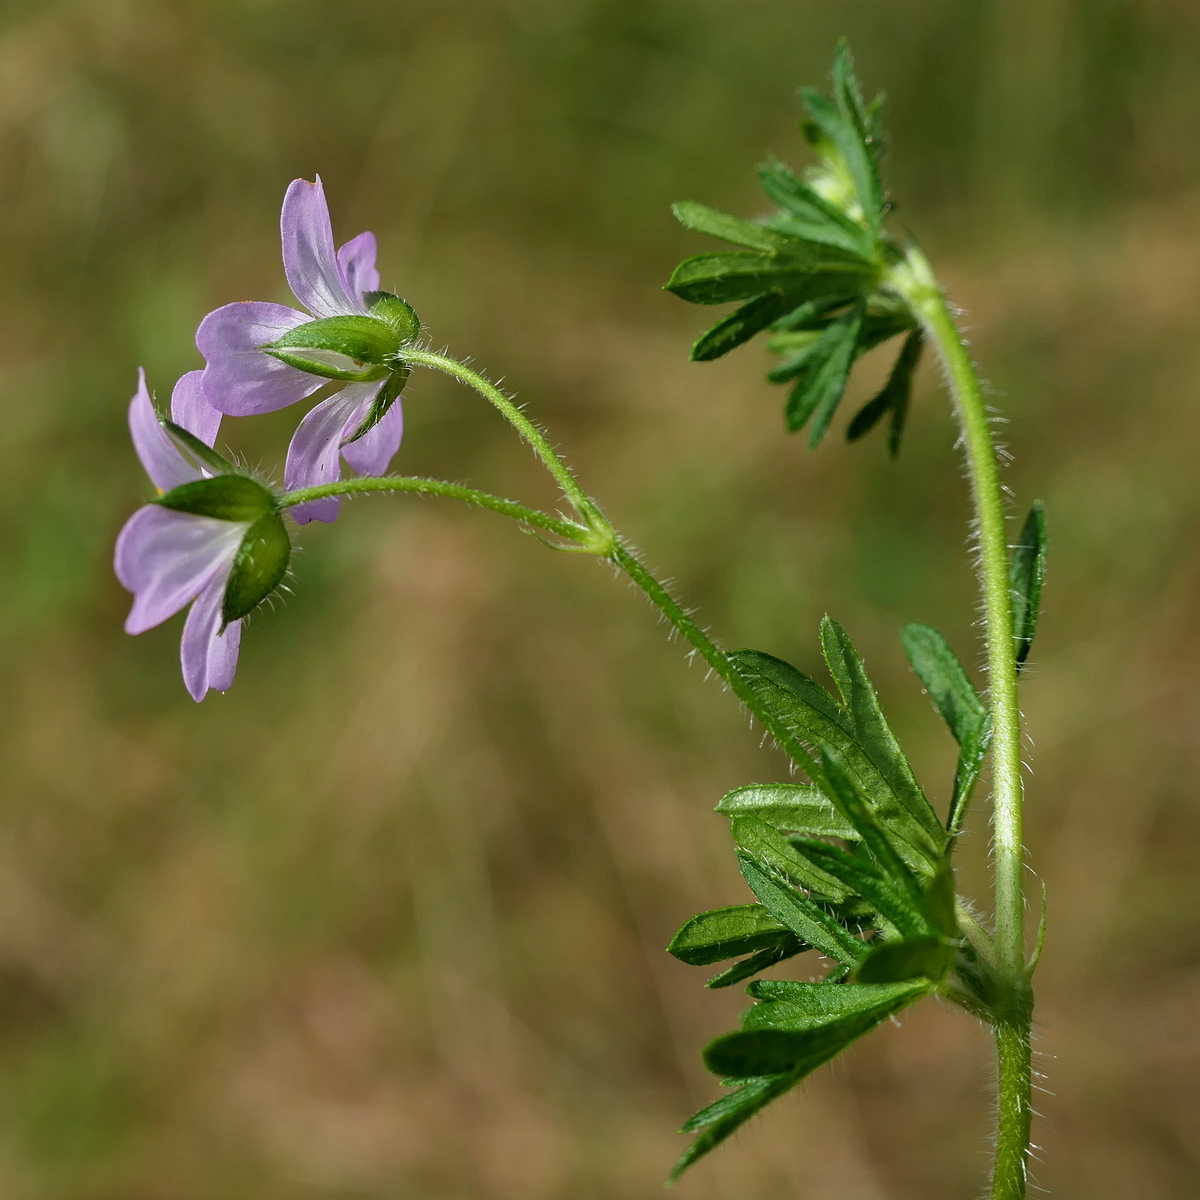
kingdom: Plantae
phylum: Tracheophyta
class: Magnoliopsida
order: Geraniales
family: Geraniaceae
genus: Geranium
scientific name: Geranium solanderi
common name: Solander's geranium
